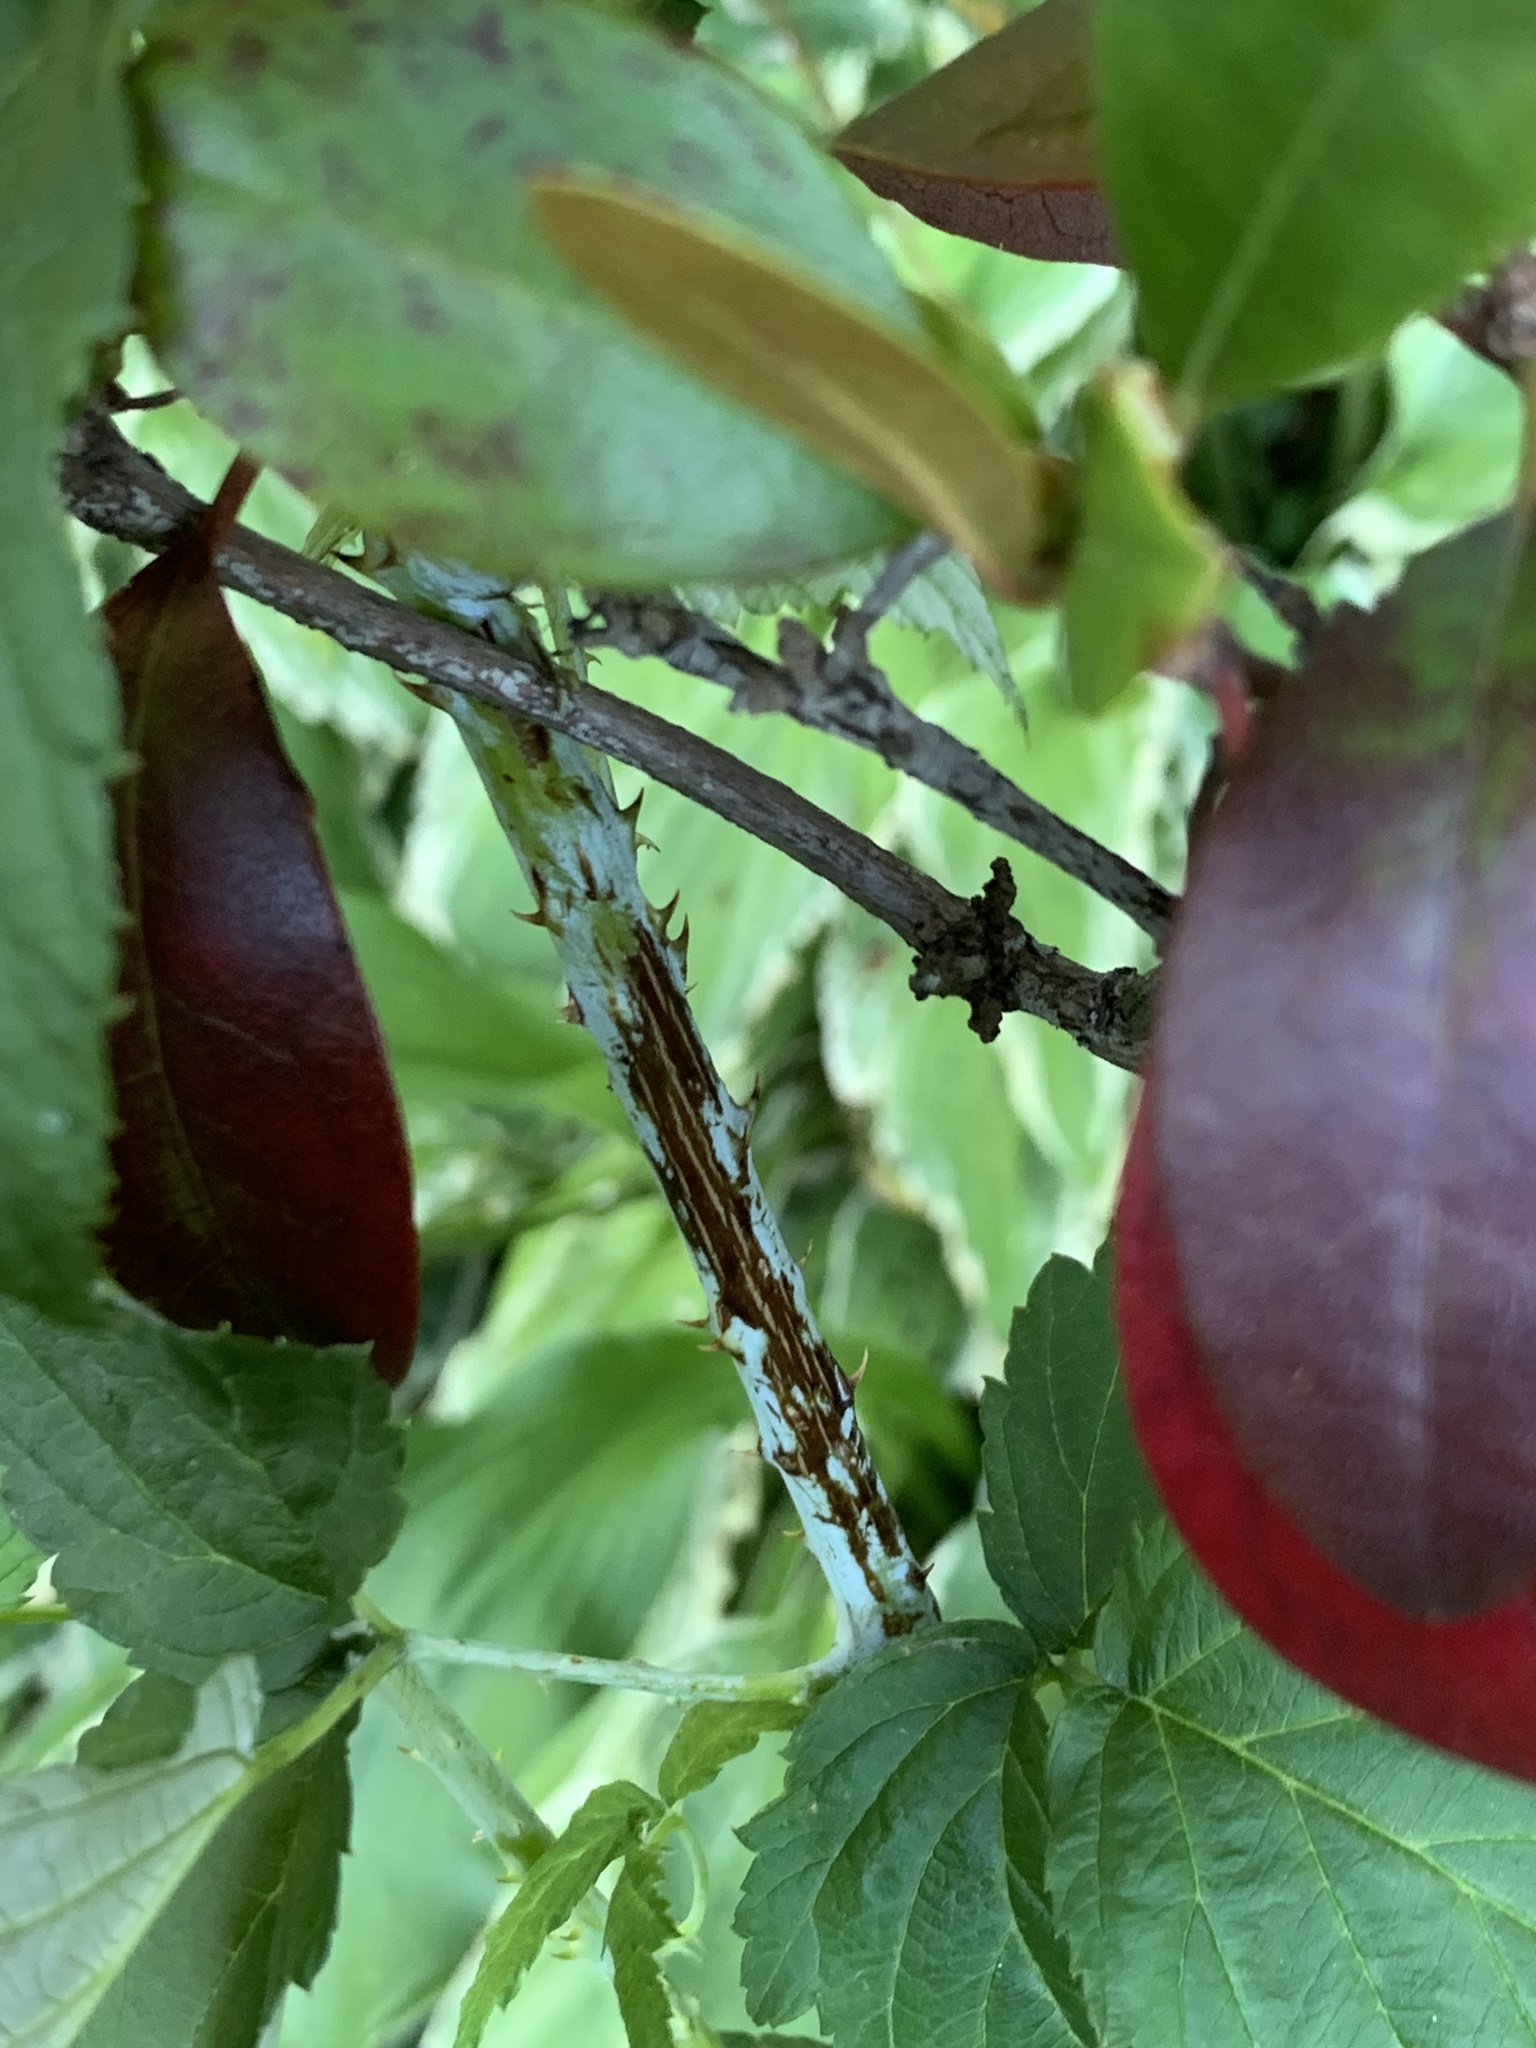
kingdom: Plantae
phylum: Tracheophyta
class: Magnoliopsida
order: Rosales
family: Rosaceae
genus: Rubus
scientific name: Rubus occidentalis
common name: Black raspberry
